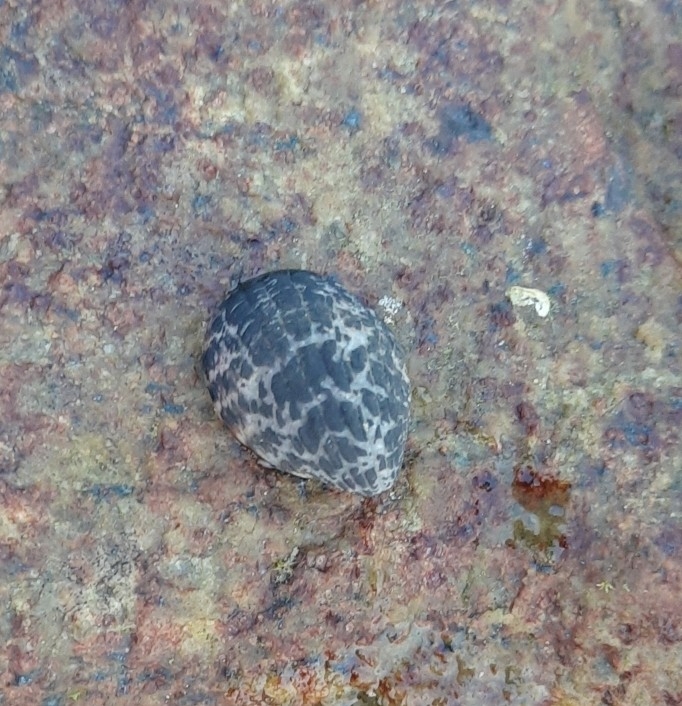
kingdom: Animalia
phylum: Mollusca
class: Gastropoda
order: Cycloneritida
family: Neritidae
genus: Nerita
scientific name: Nerita albicilla
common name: Blotched nerite
